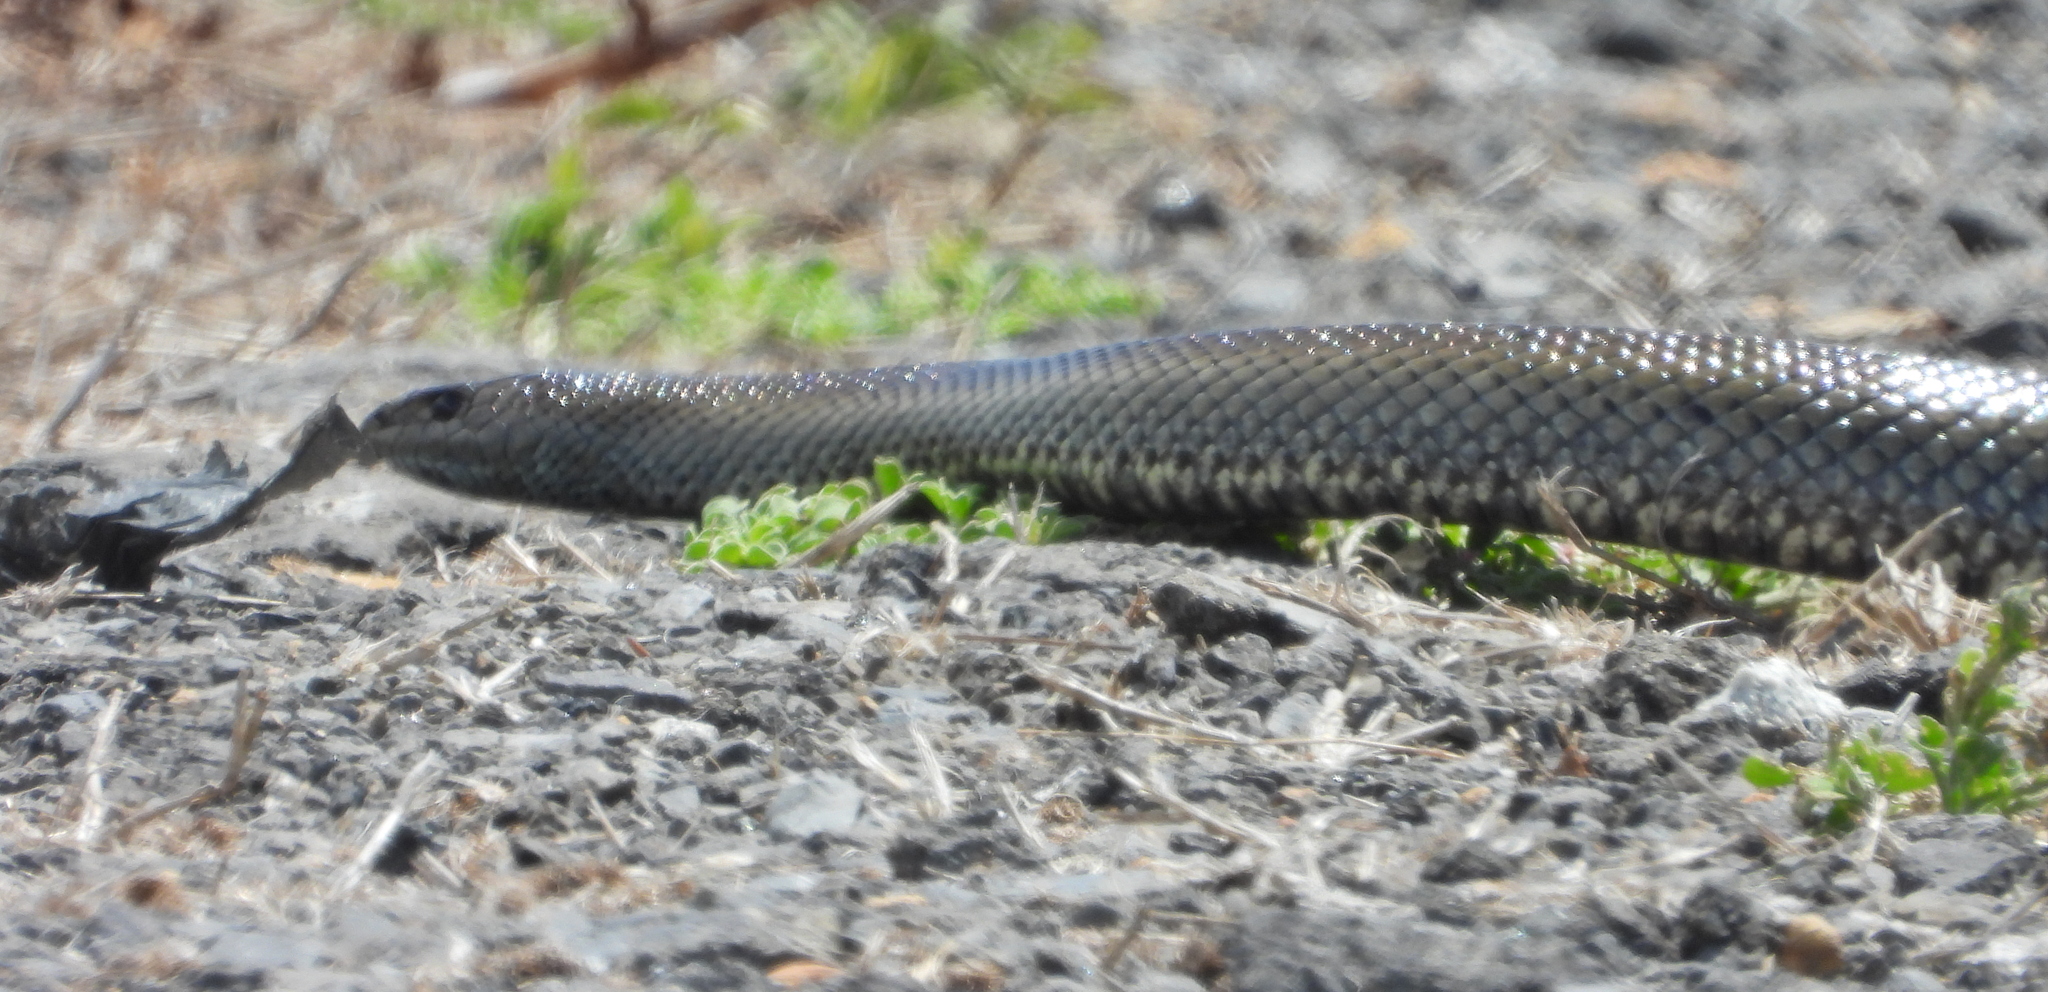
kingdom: Animalia
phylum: Chordata
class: Squamata
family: Pseudaspididae
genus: Pseudaspis
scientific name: Pseudaspis cana
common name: Mole snake
